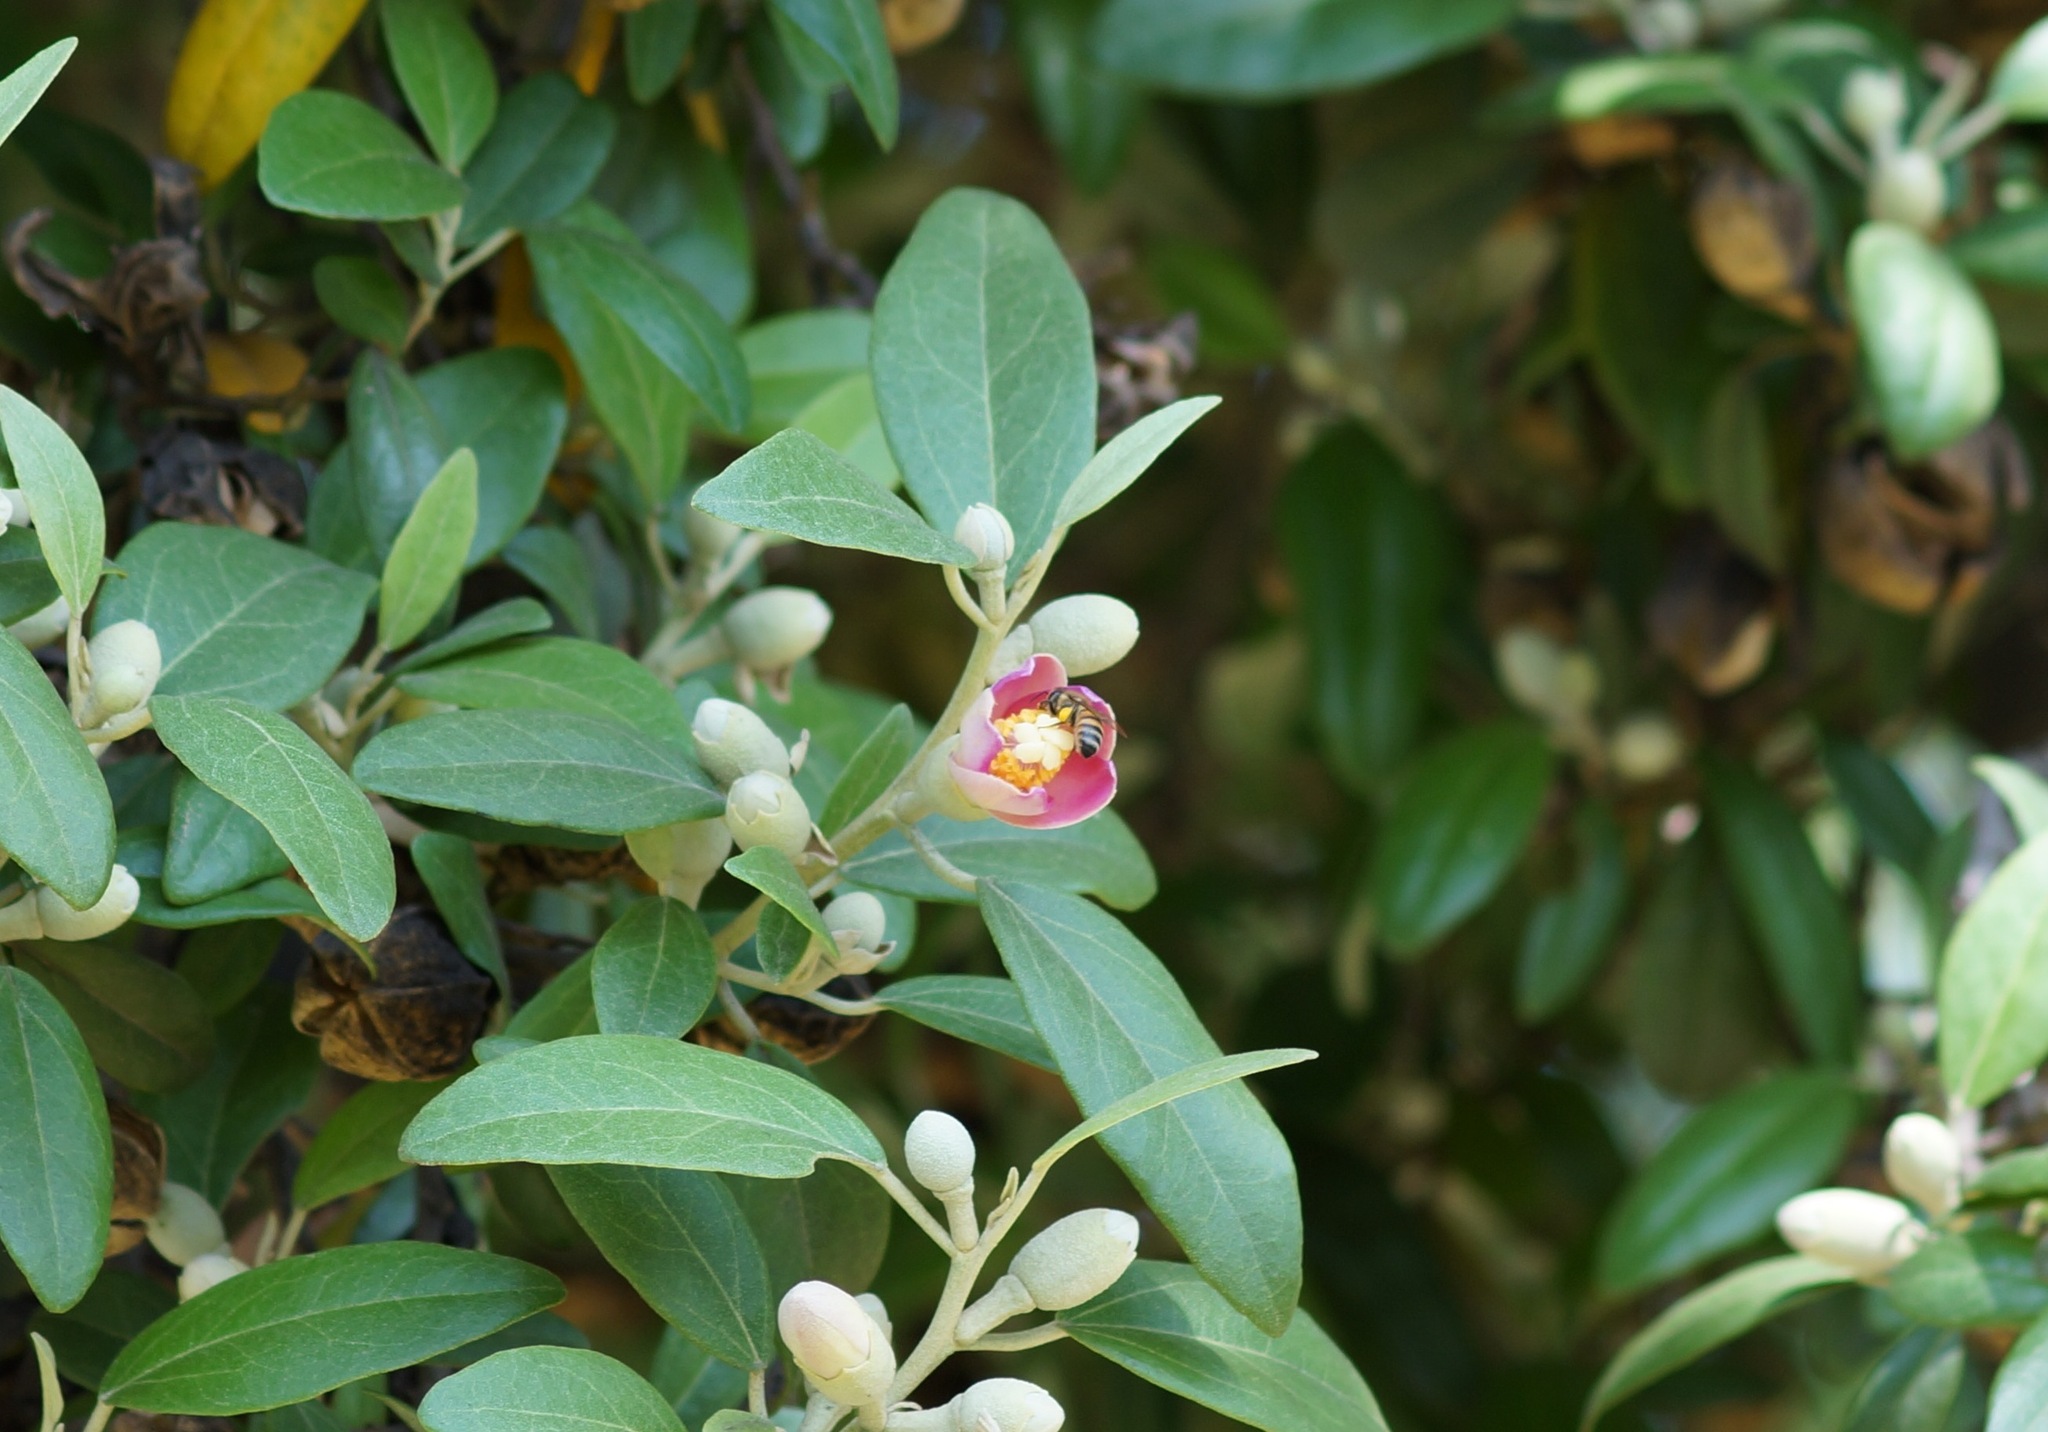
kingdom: Animalia
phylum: Arthropoda
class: Insecta
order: Hymenoptera
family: Apidae
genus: Apis
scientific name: Apis mellifera
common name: Honey bee
